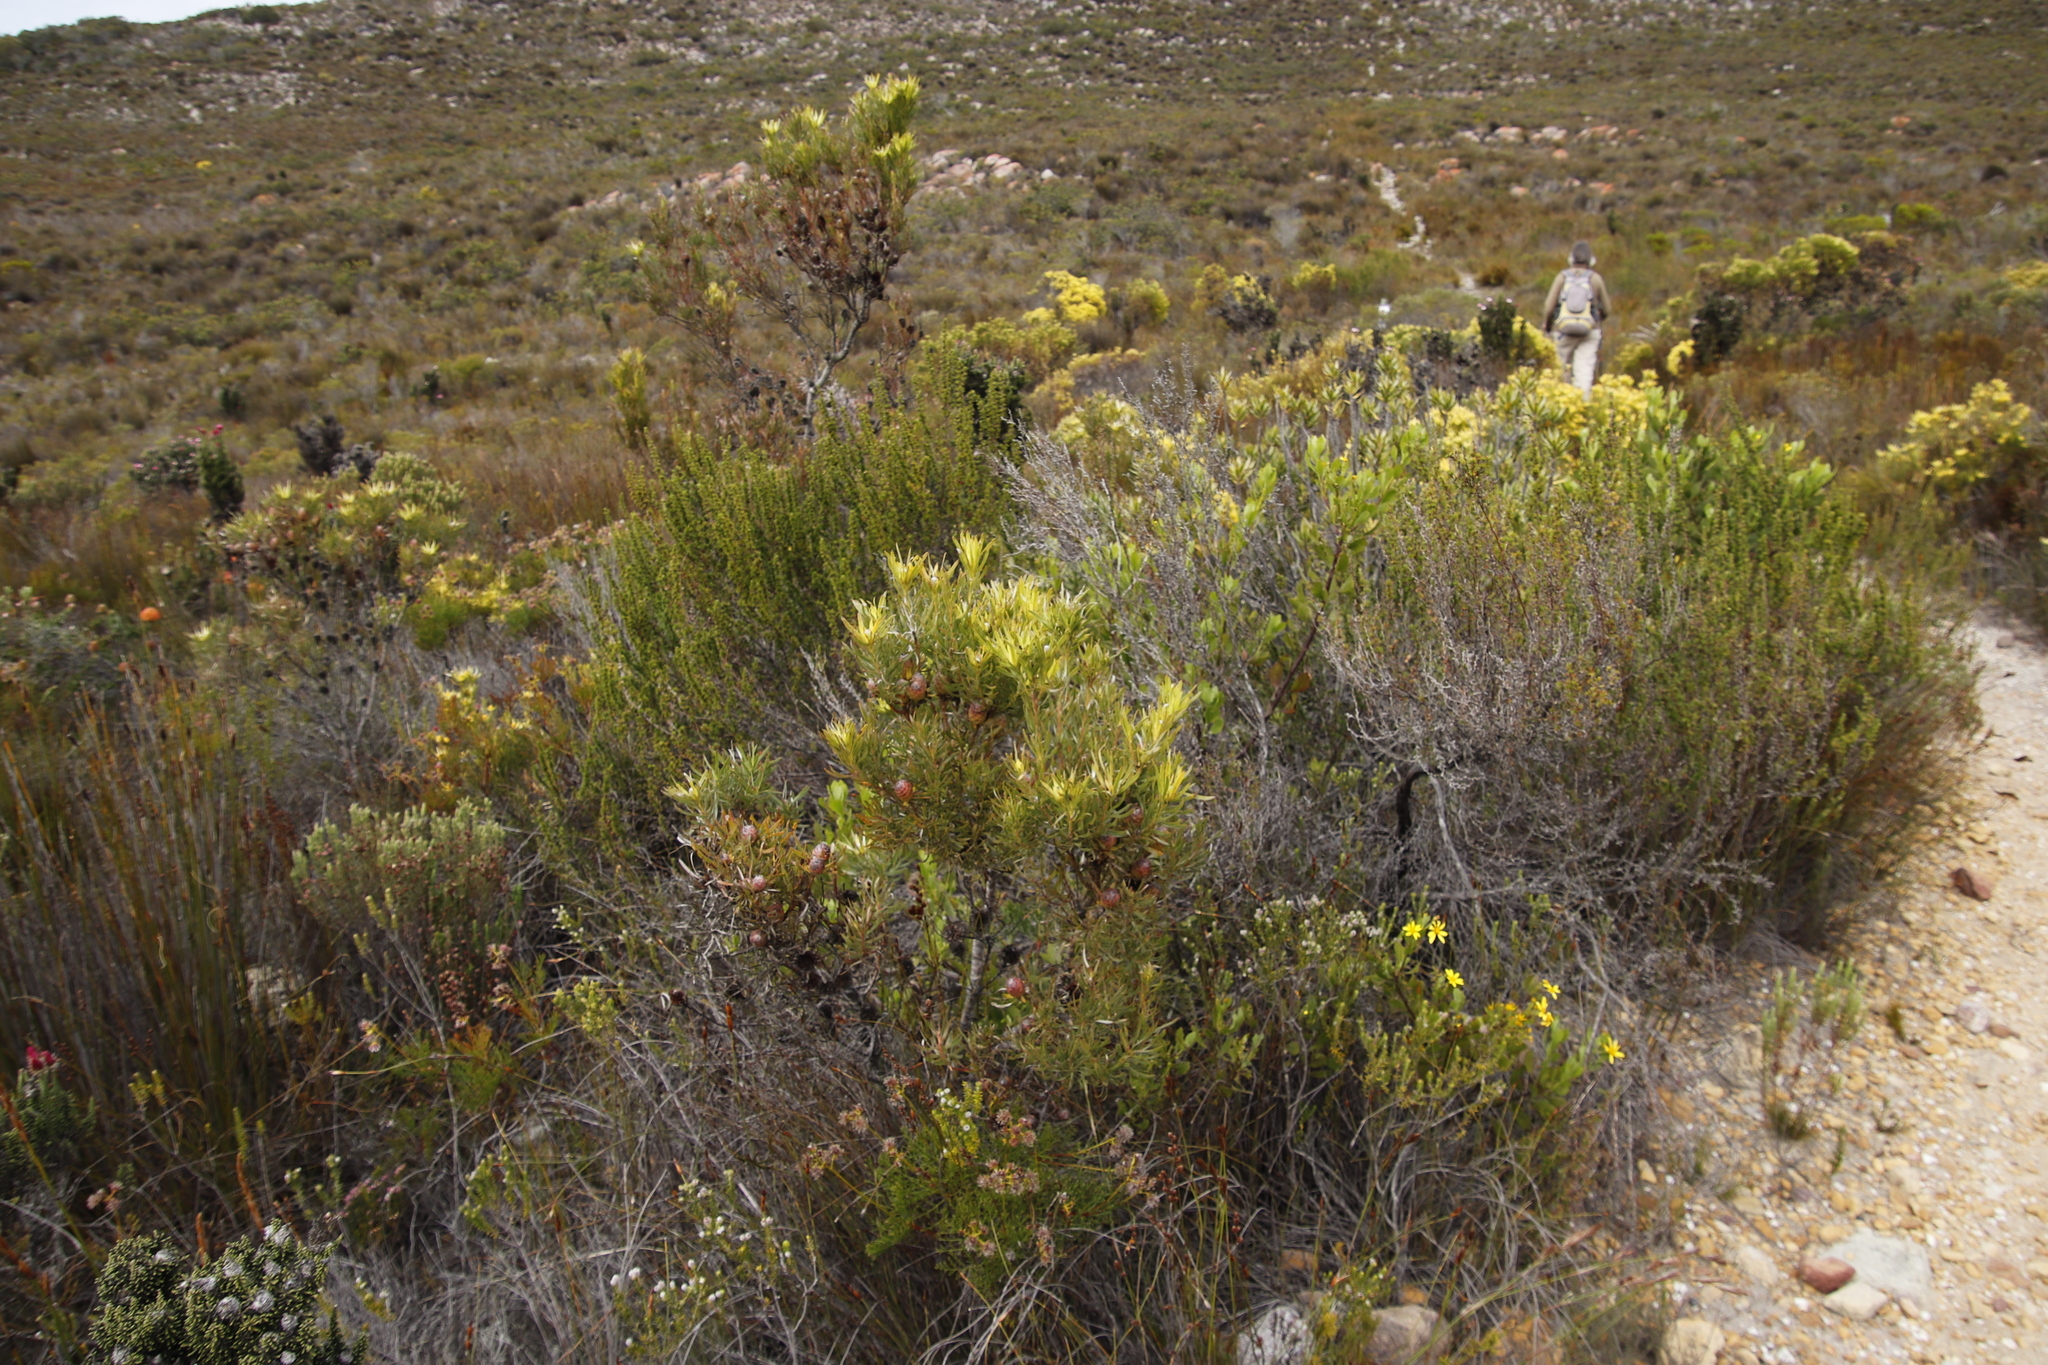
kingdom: Plantae
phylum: Tracheophyta
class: Magnoliopsida
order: Proteales
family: Proteaceae
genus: Leucadendron
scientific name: Leucadendron xanthoconus
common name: Sickle-leaf conebush
